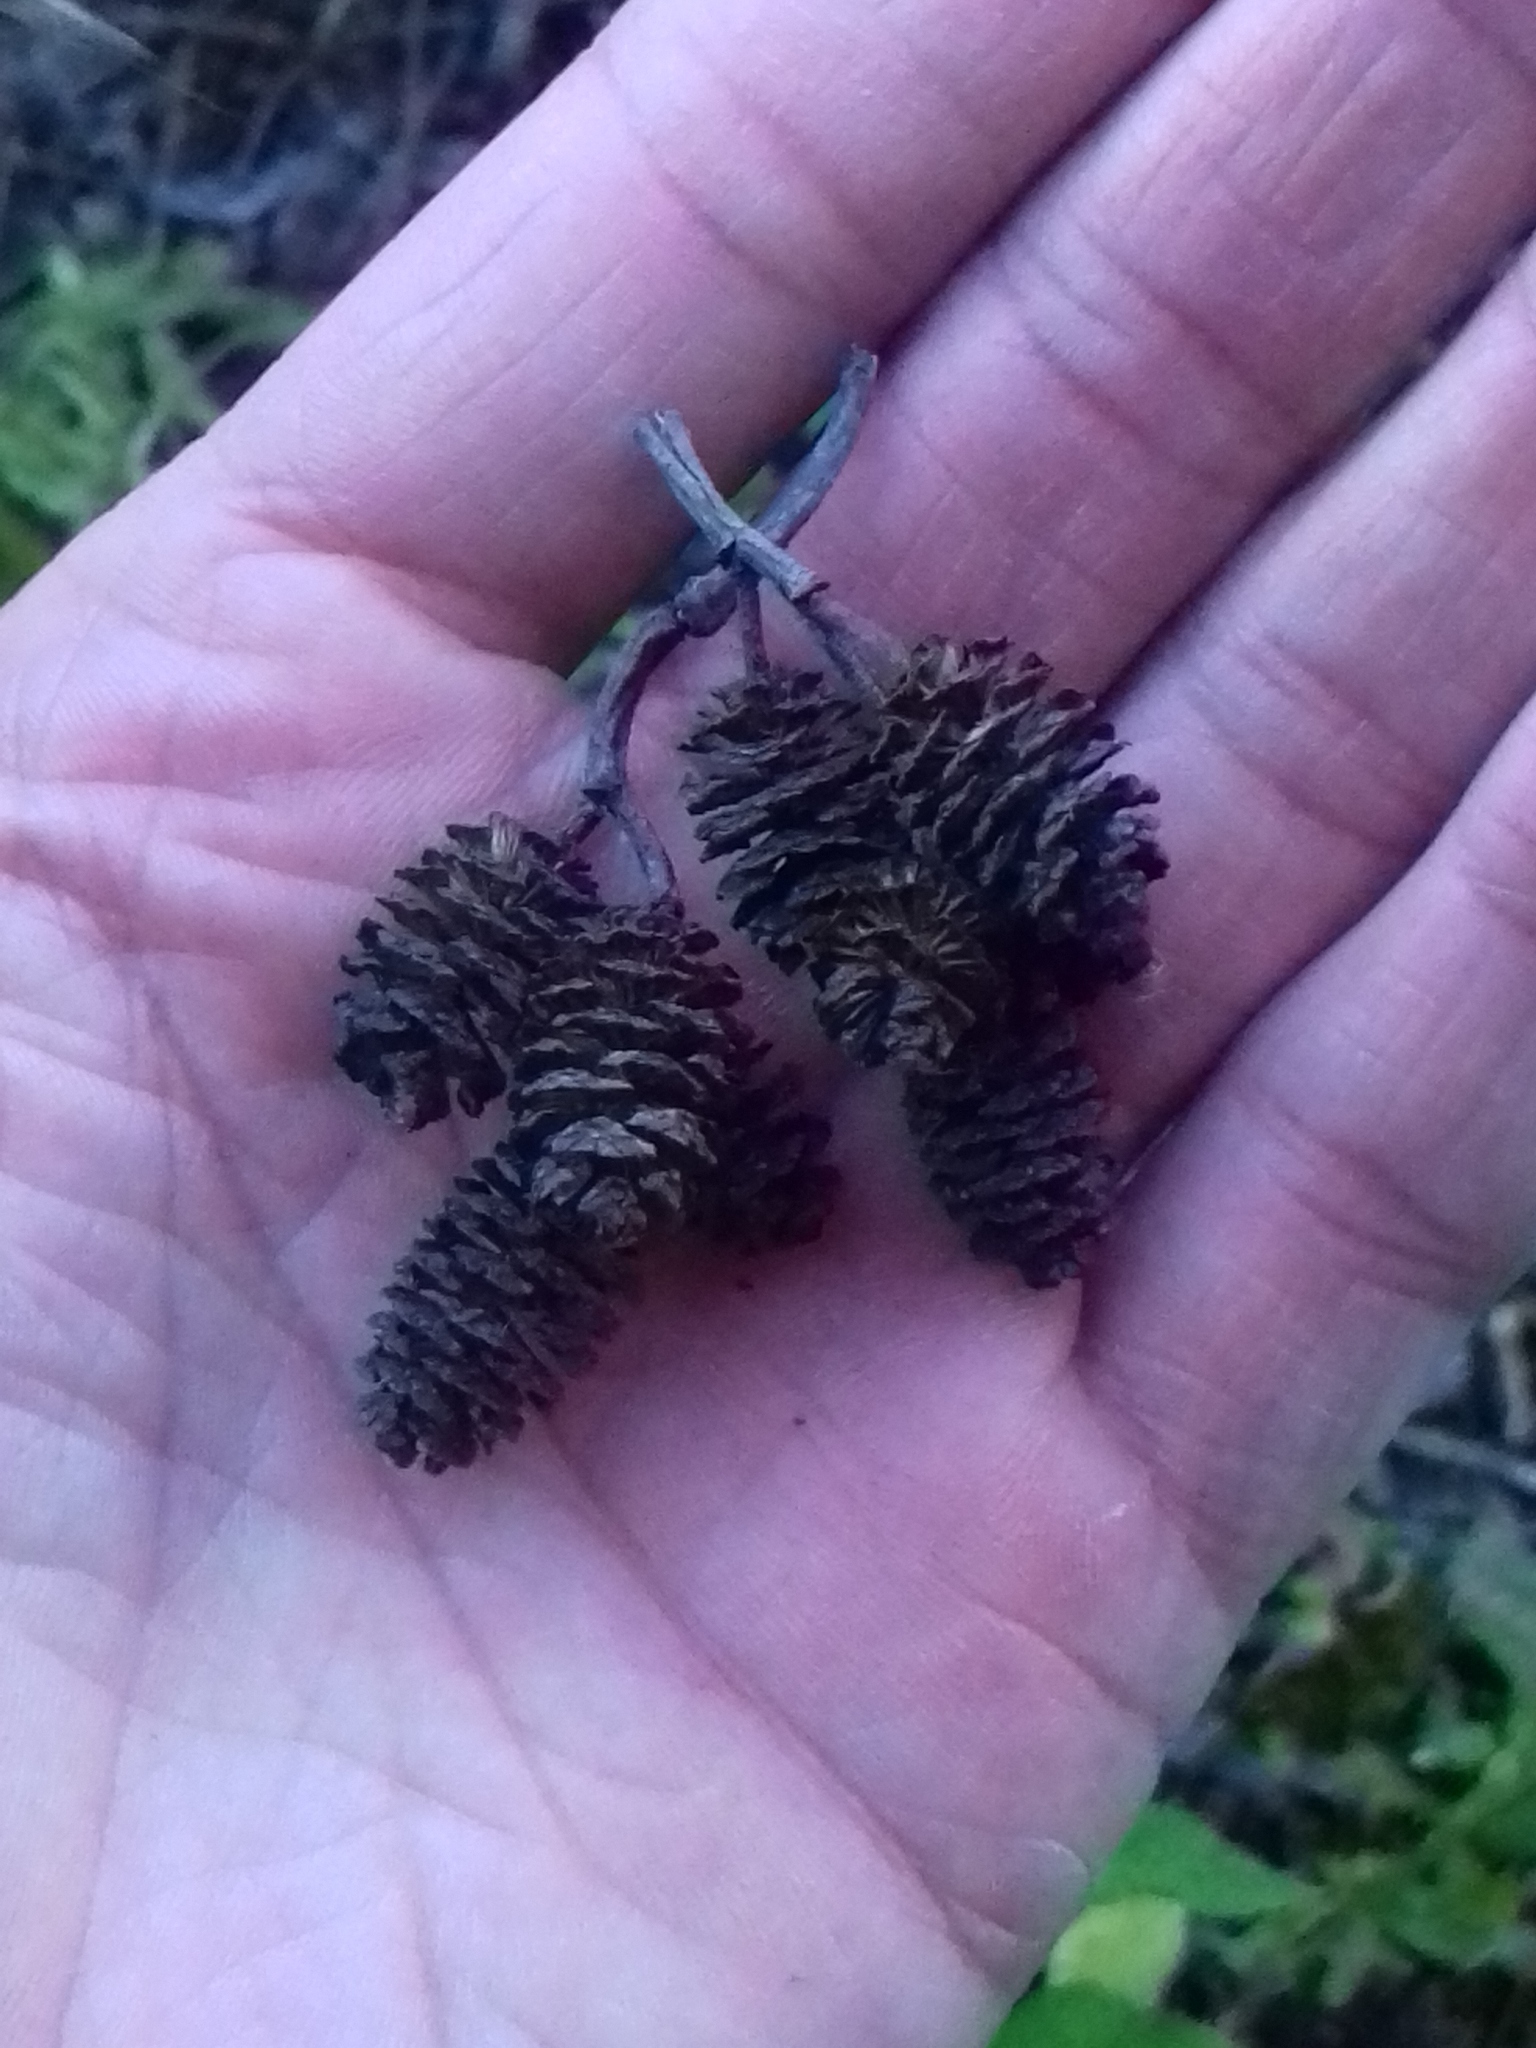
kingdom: Plantae
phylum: Tracheophyta
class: Magnoliopsida
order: Fagales
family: Betulaceae
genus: Alnus
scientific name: Alnus incana
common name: Grey alder
